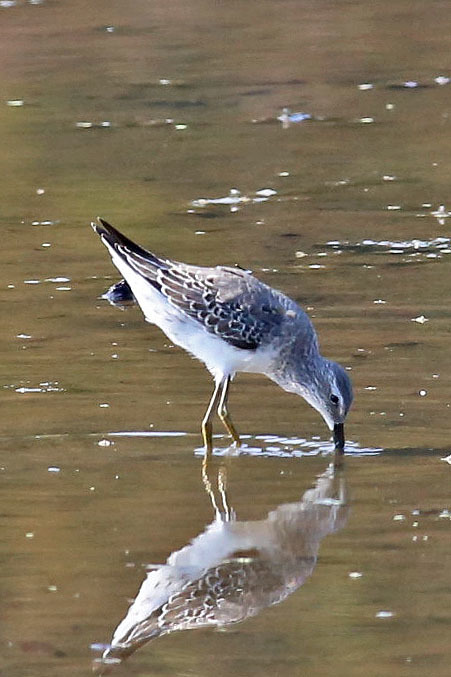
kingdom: Animalia
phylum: Chordata
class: Aves
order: Charadriiformes
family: Scolopacidae
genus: Calidris
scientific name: Calidris himantopus
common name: Stilt sandpiper
